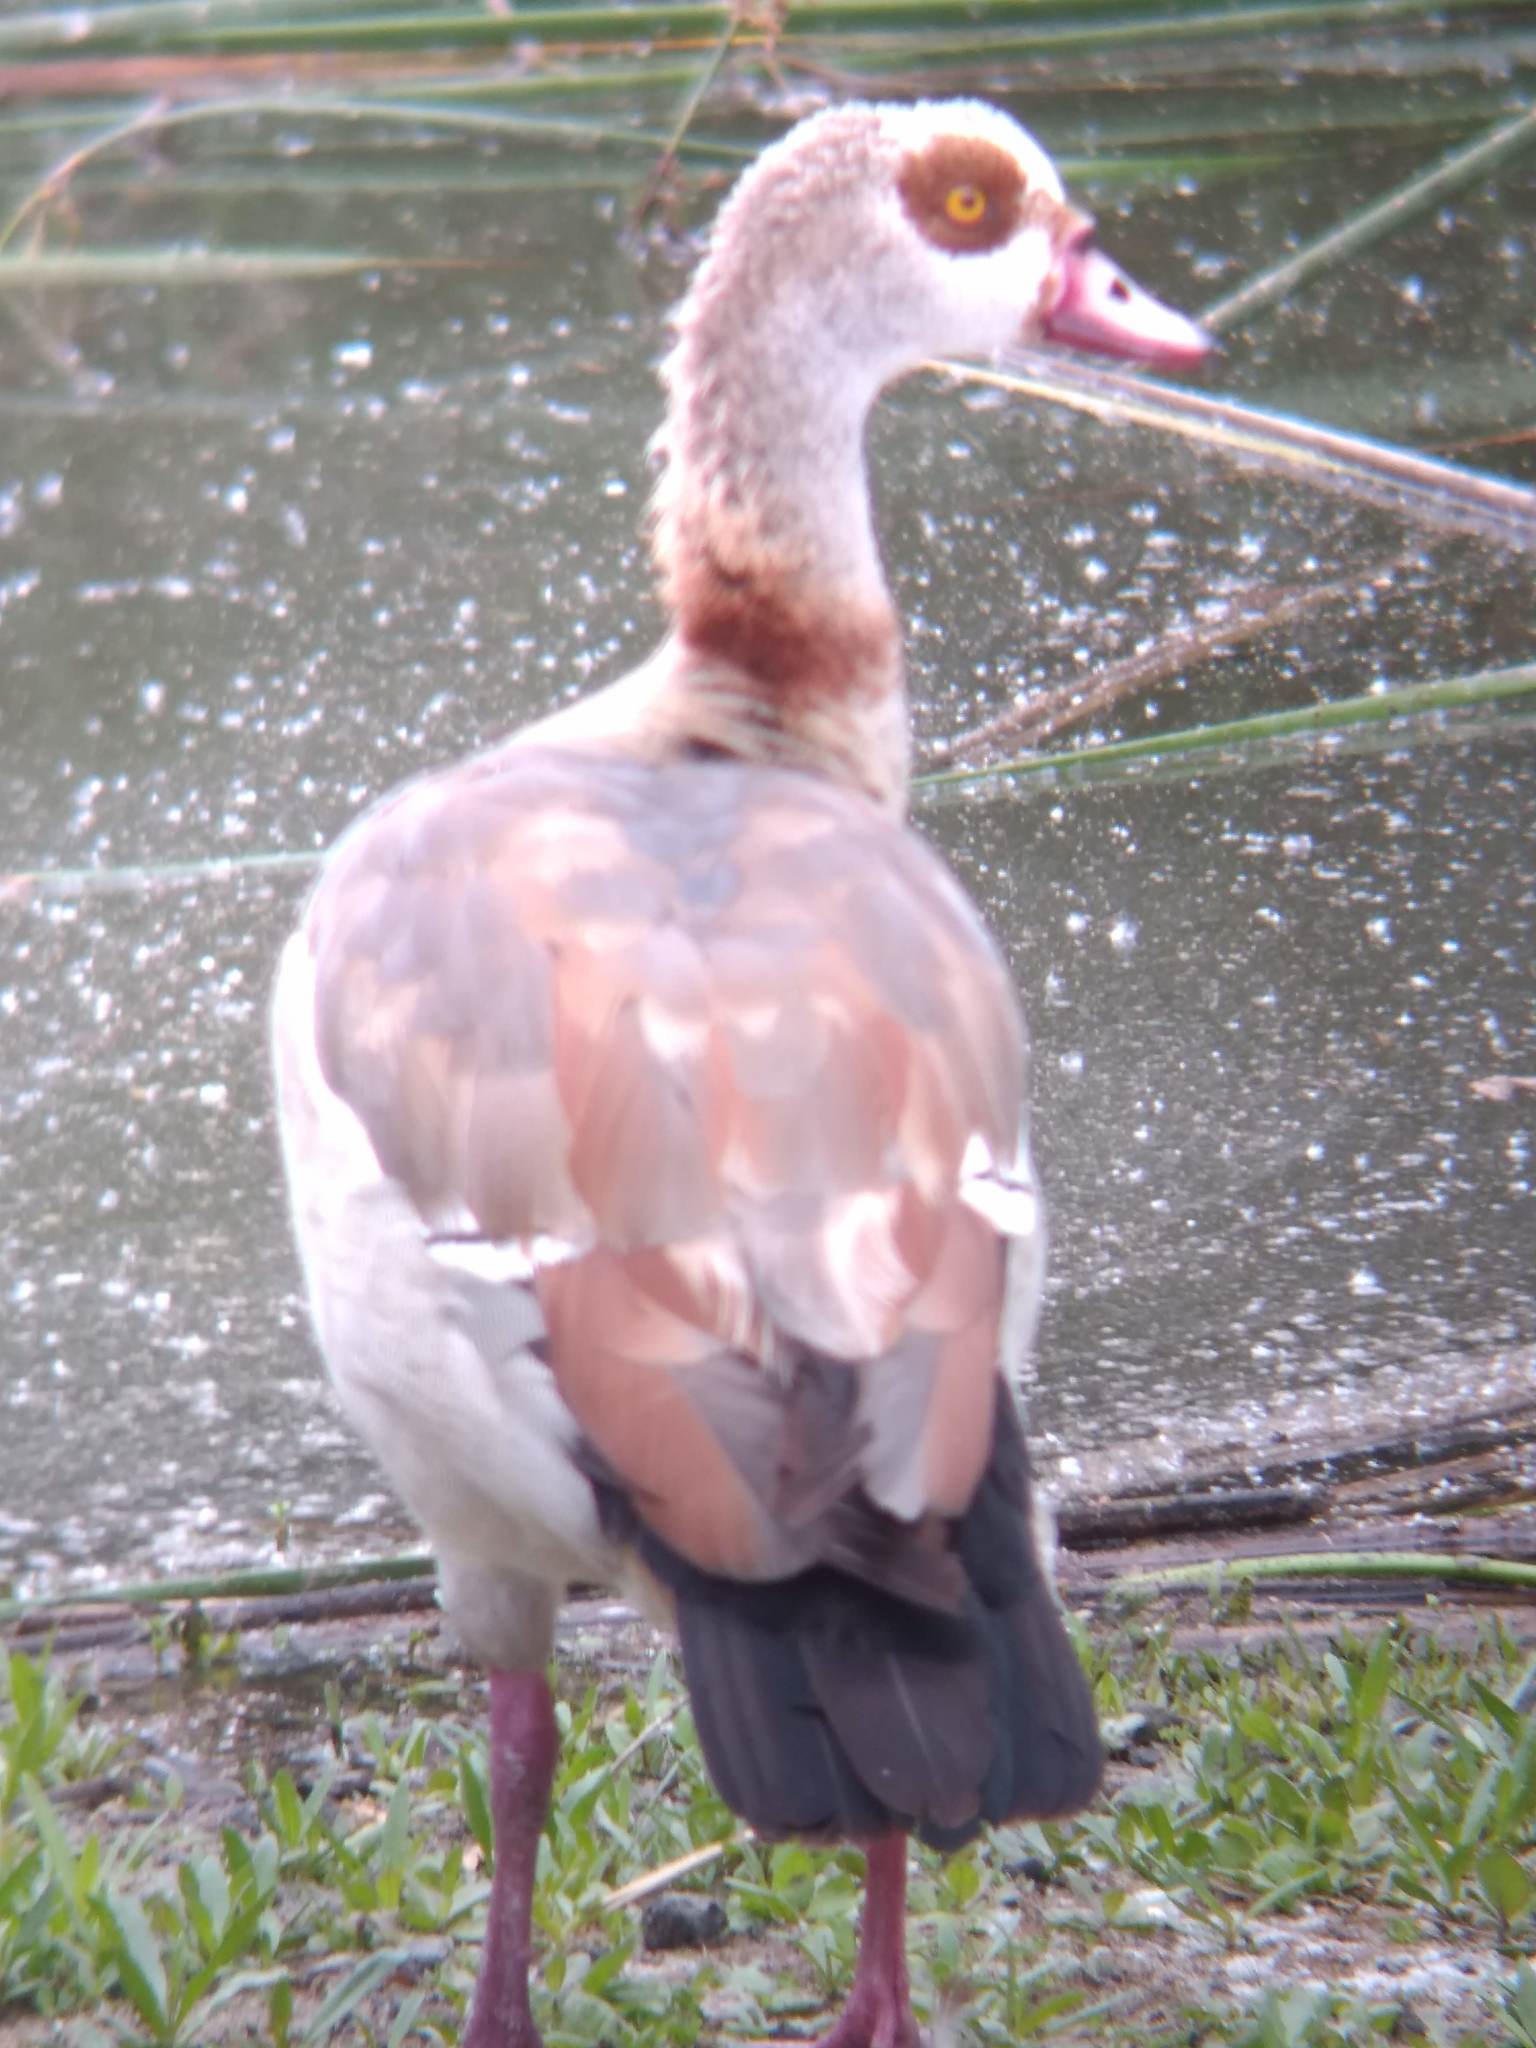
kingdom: Animalia
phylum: Chordata
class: Aves
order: Anseriformes
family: Anatidae
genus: Alopochen
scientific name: Alopochen aegyptiaca
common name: Egyptian goose
